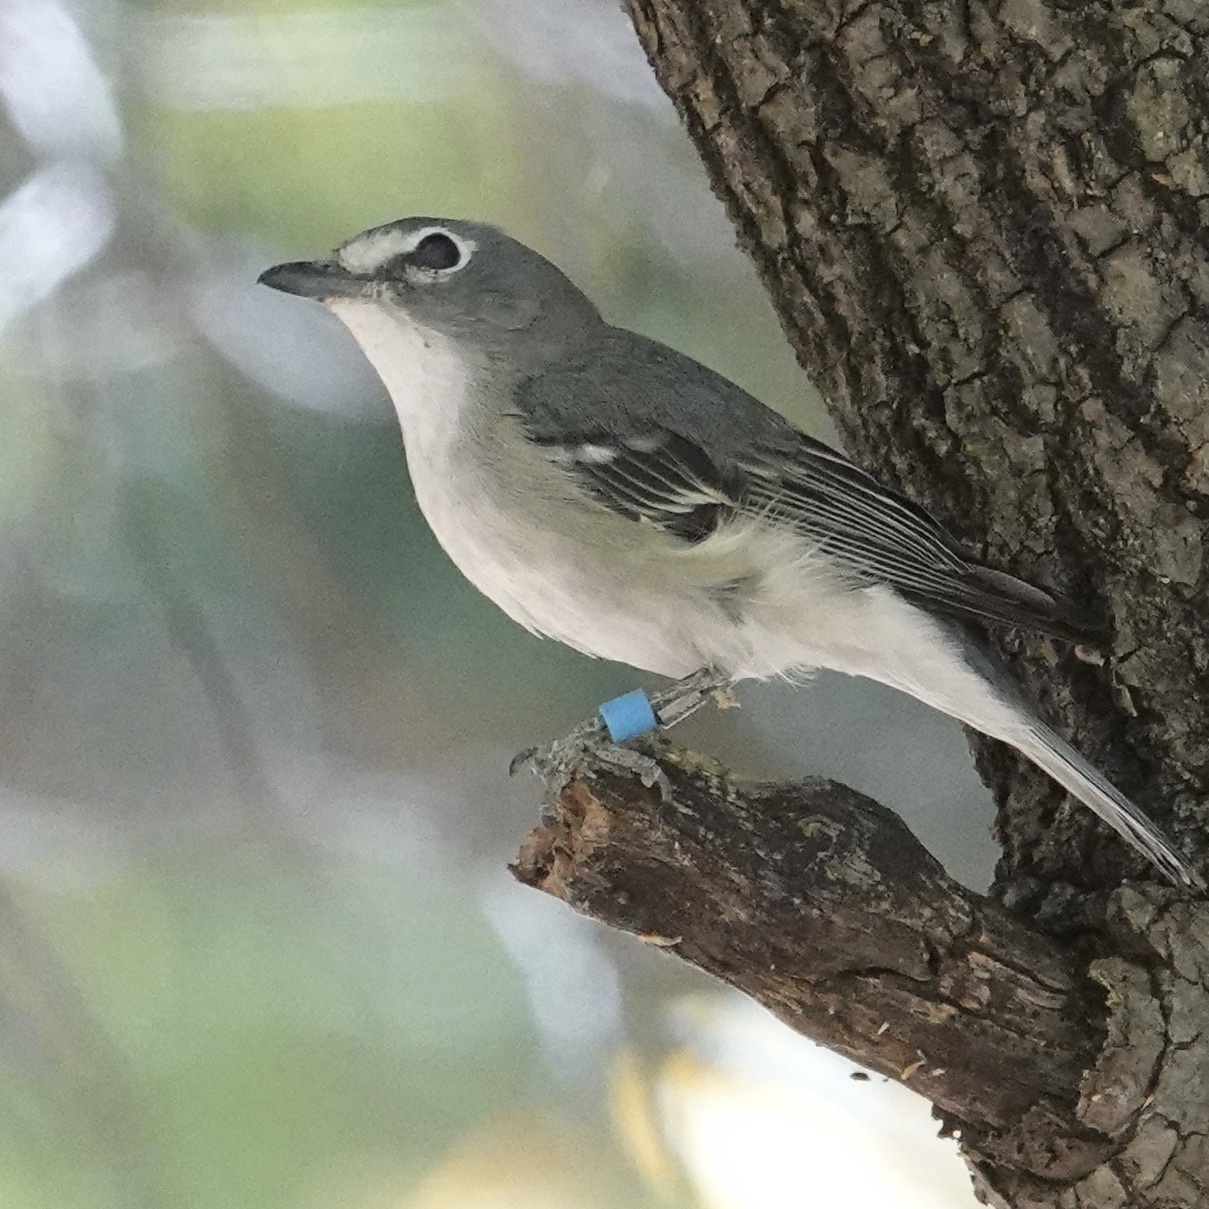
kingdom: Animalia
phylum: Chordata
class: Aves
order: Passeriformes
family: Vireonidae
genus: Vireo
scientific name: Vireo plumbeus
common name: Plumbeous vireo
